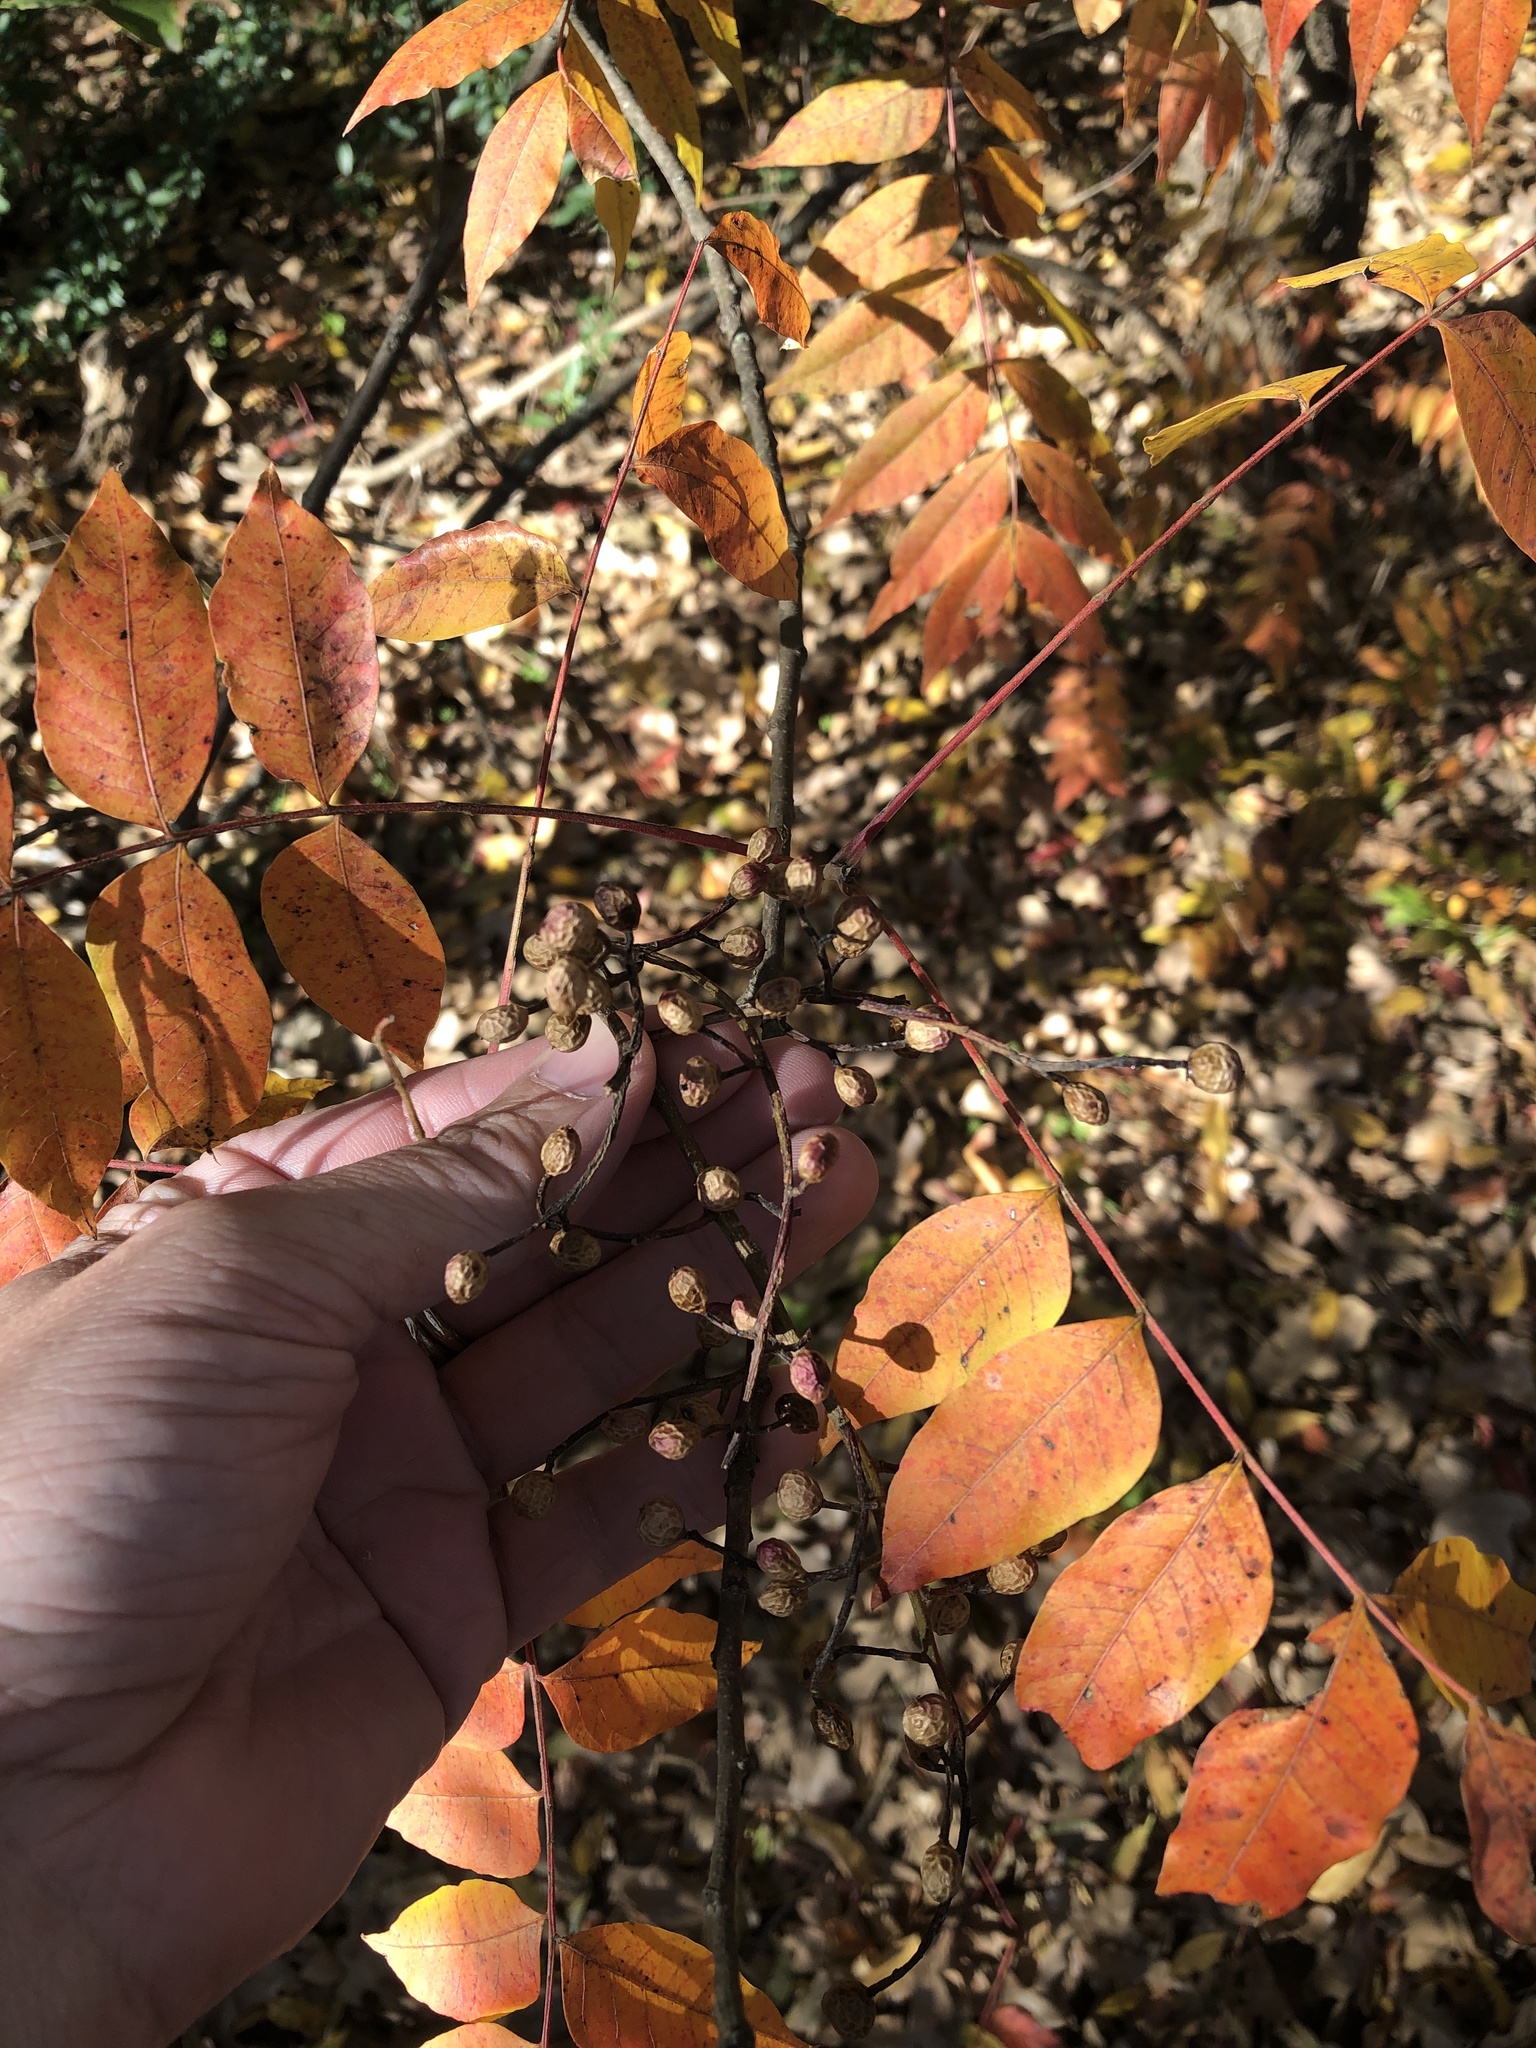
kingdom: Plantae
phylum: Tracheophyta
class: Magnoliopsida
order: Sapindales
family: Anacardiaceae
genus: Pistacia
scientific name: Pistacia chinensis
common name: Chinese pistache
